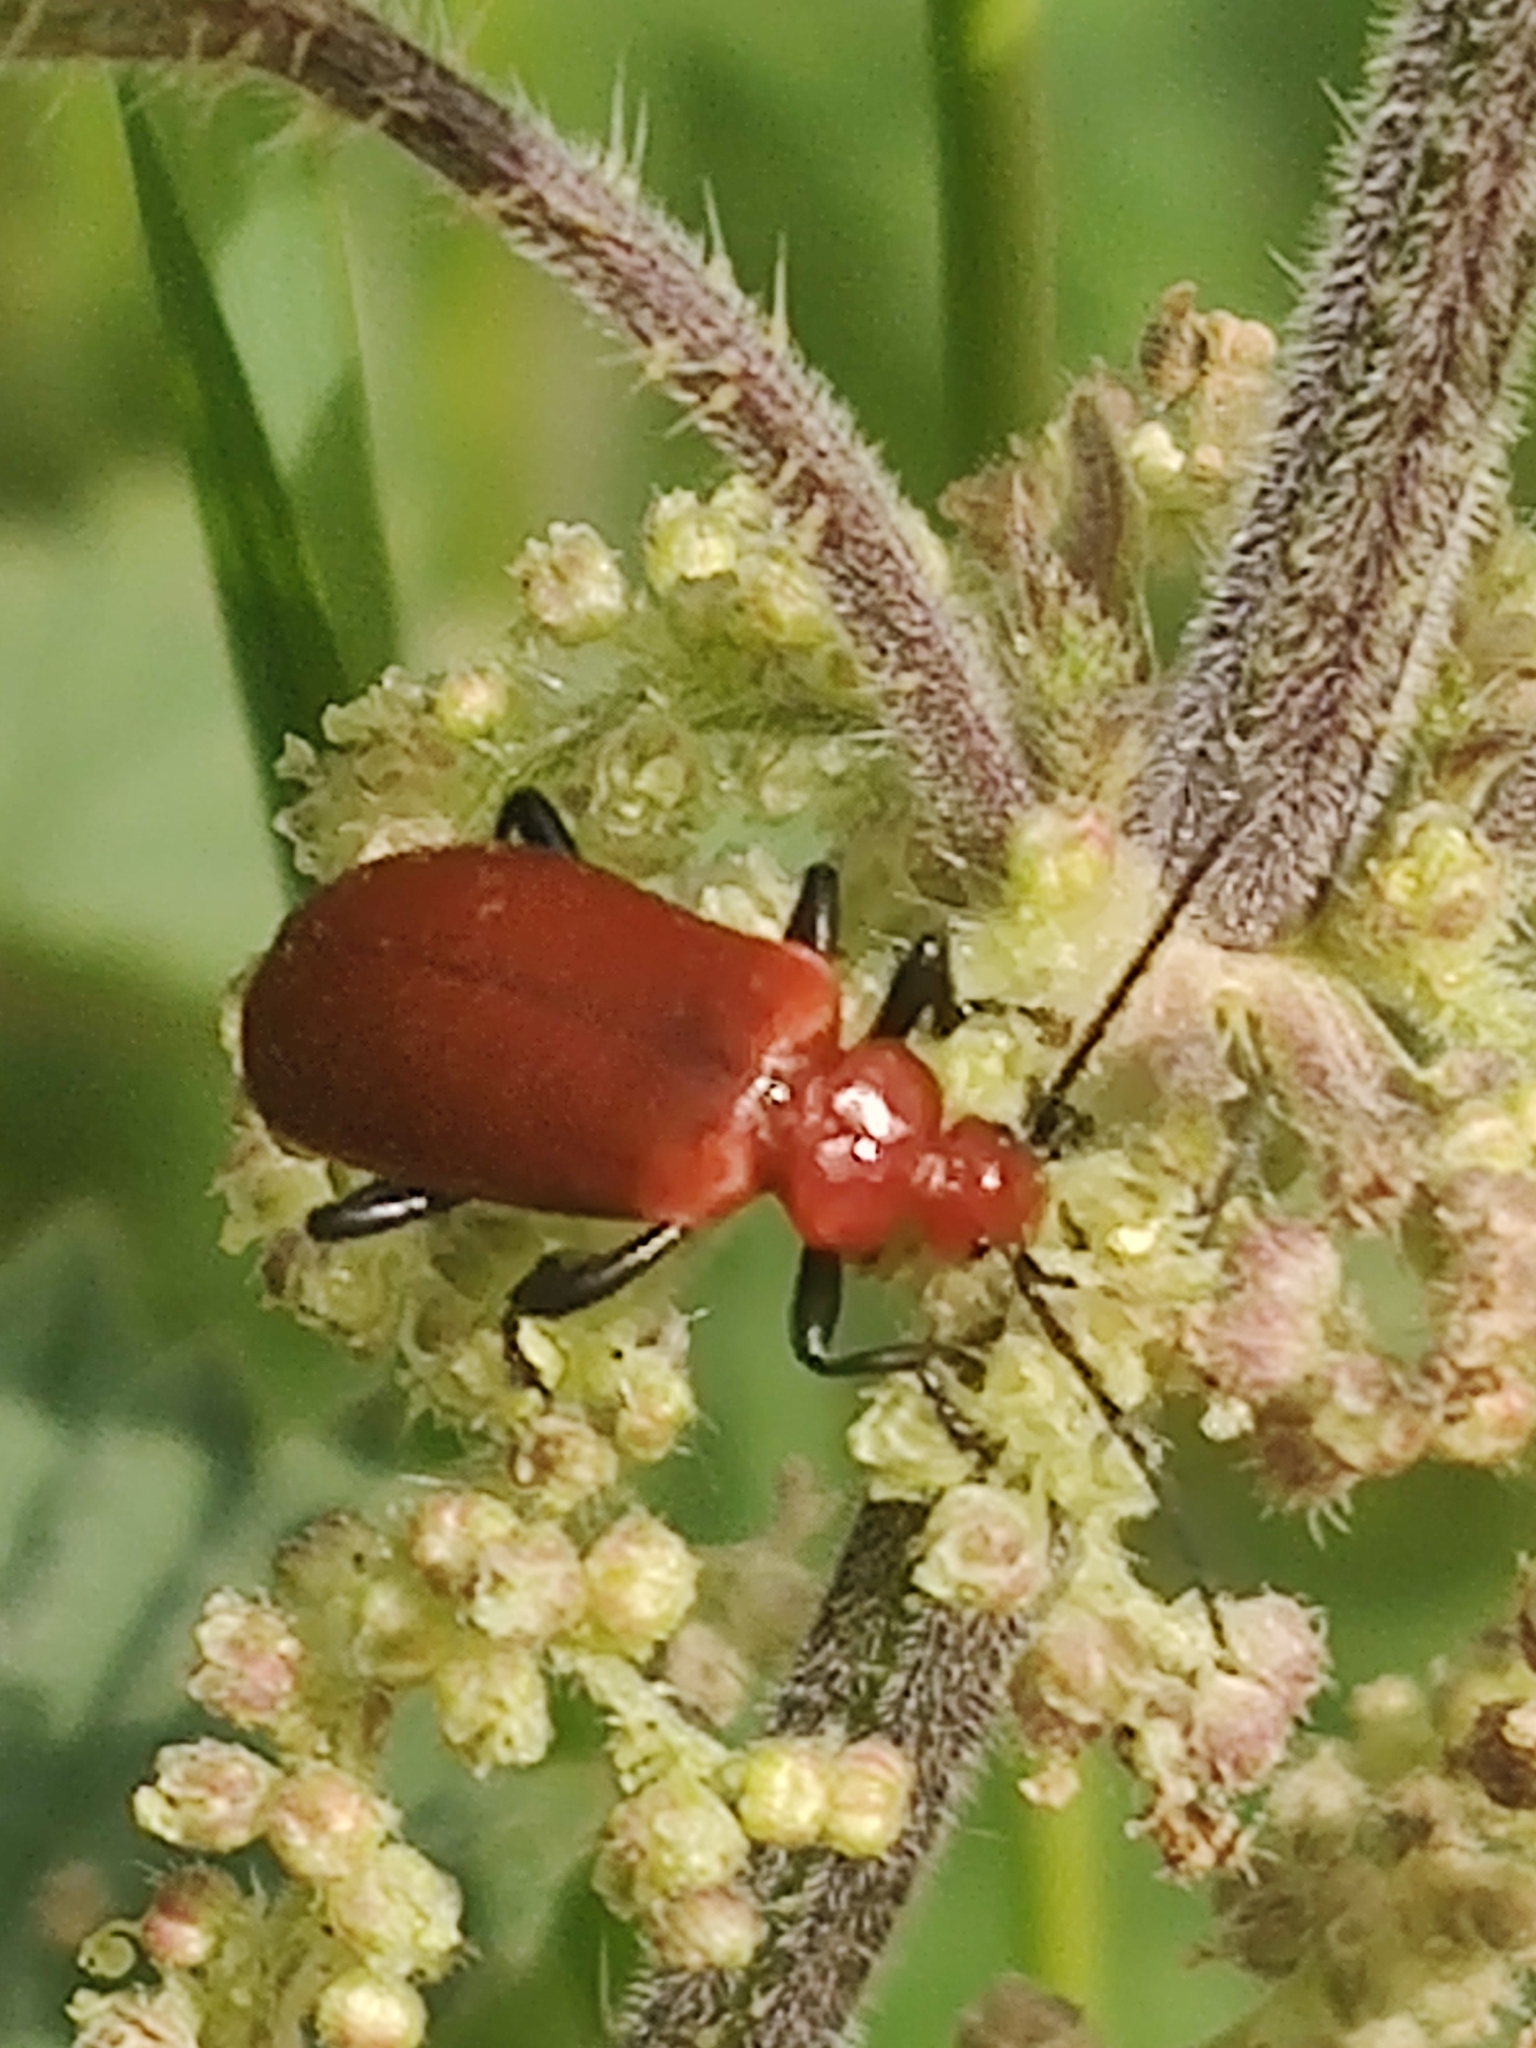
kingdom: Animalia
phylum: Arthropoda
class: Insecta
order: Coleoptera
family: Pyrochroidae
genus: Pyrochroa
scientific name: Pyrochroa serraticornis
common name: Red-headed cardinal beetle
